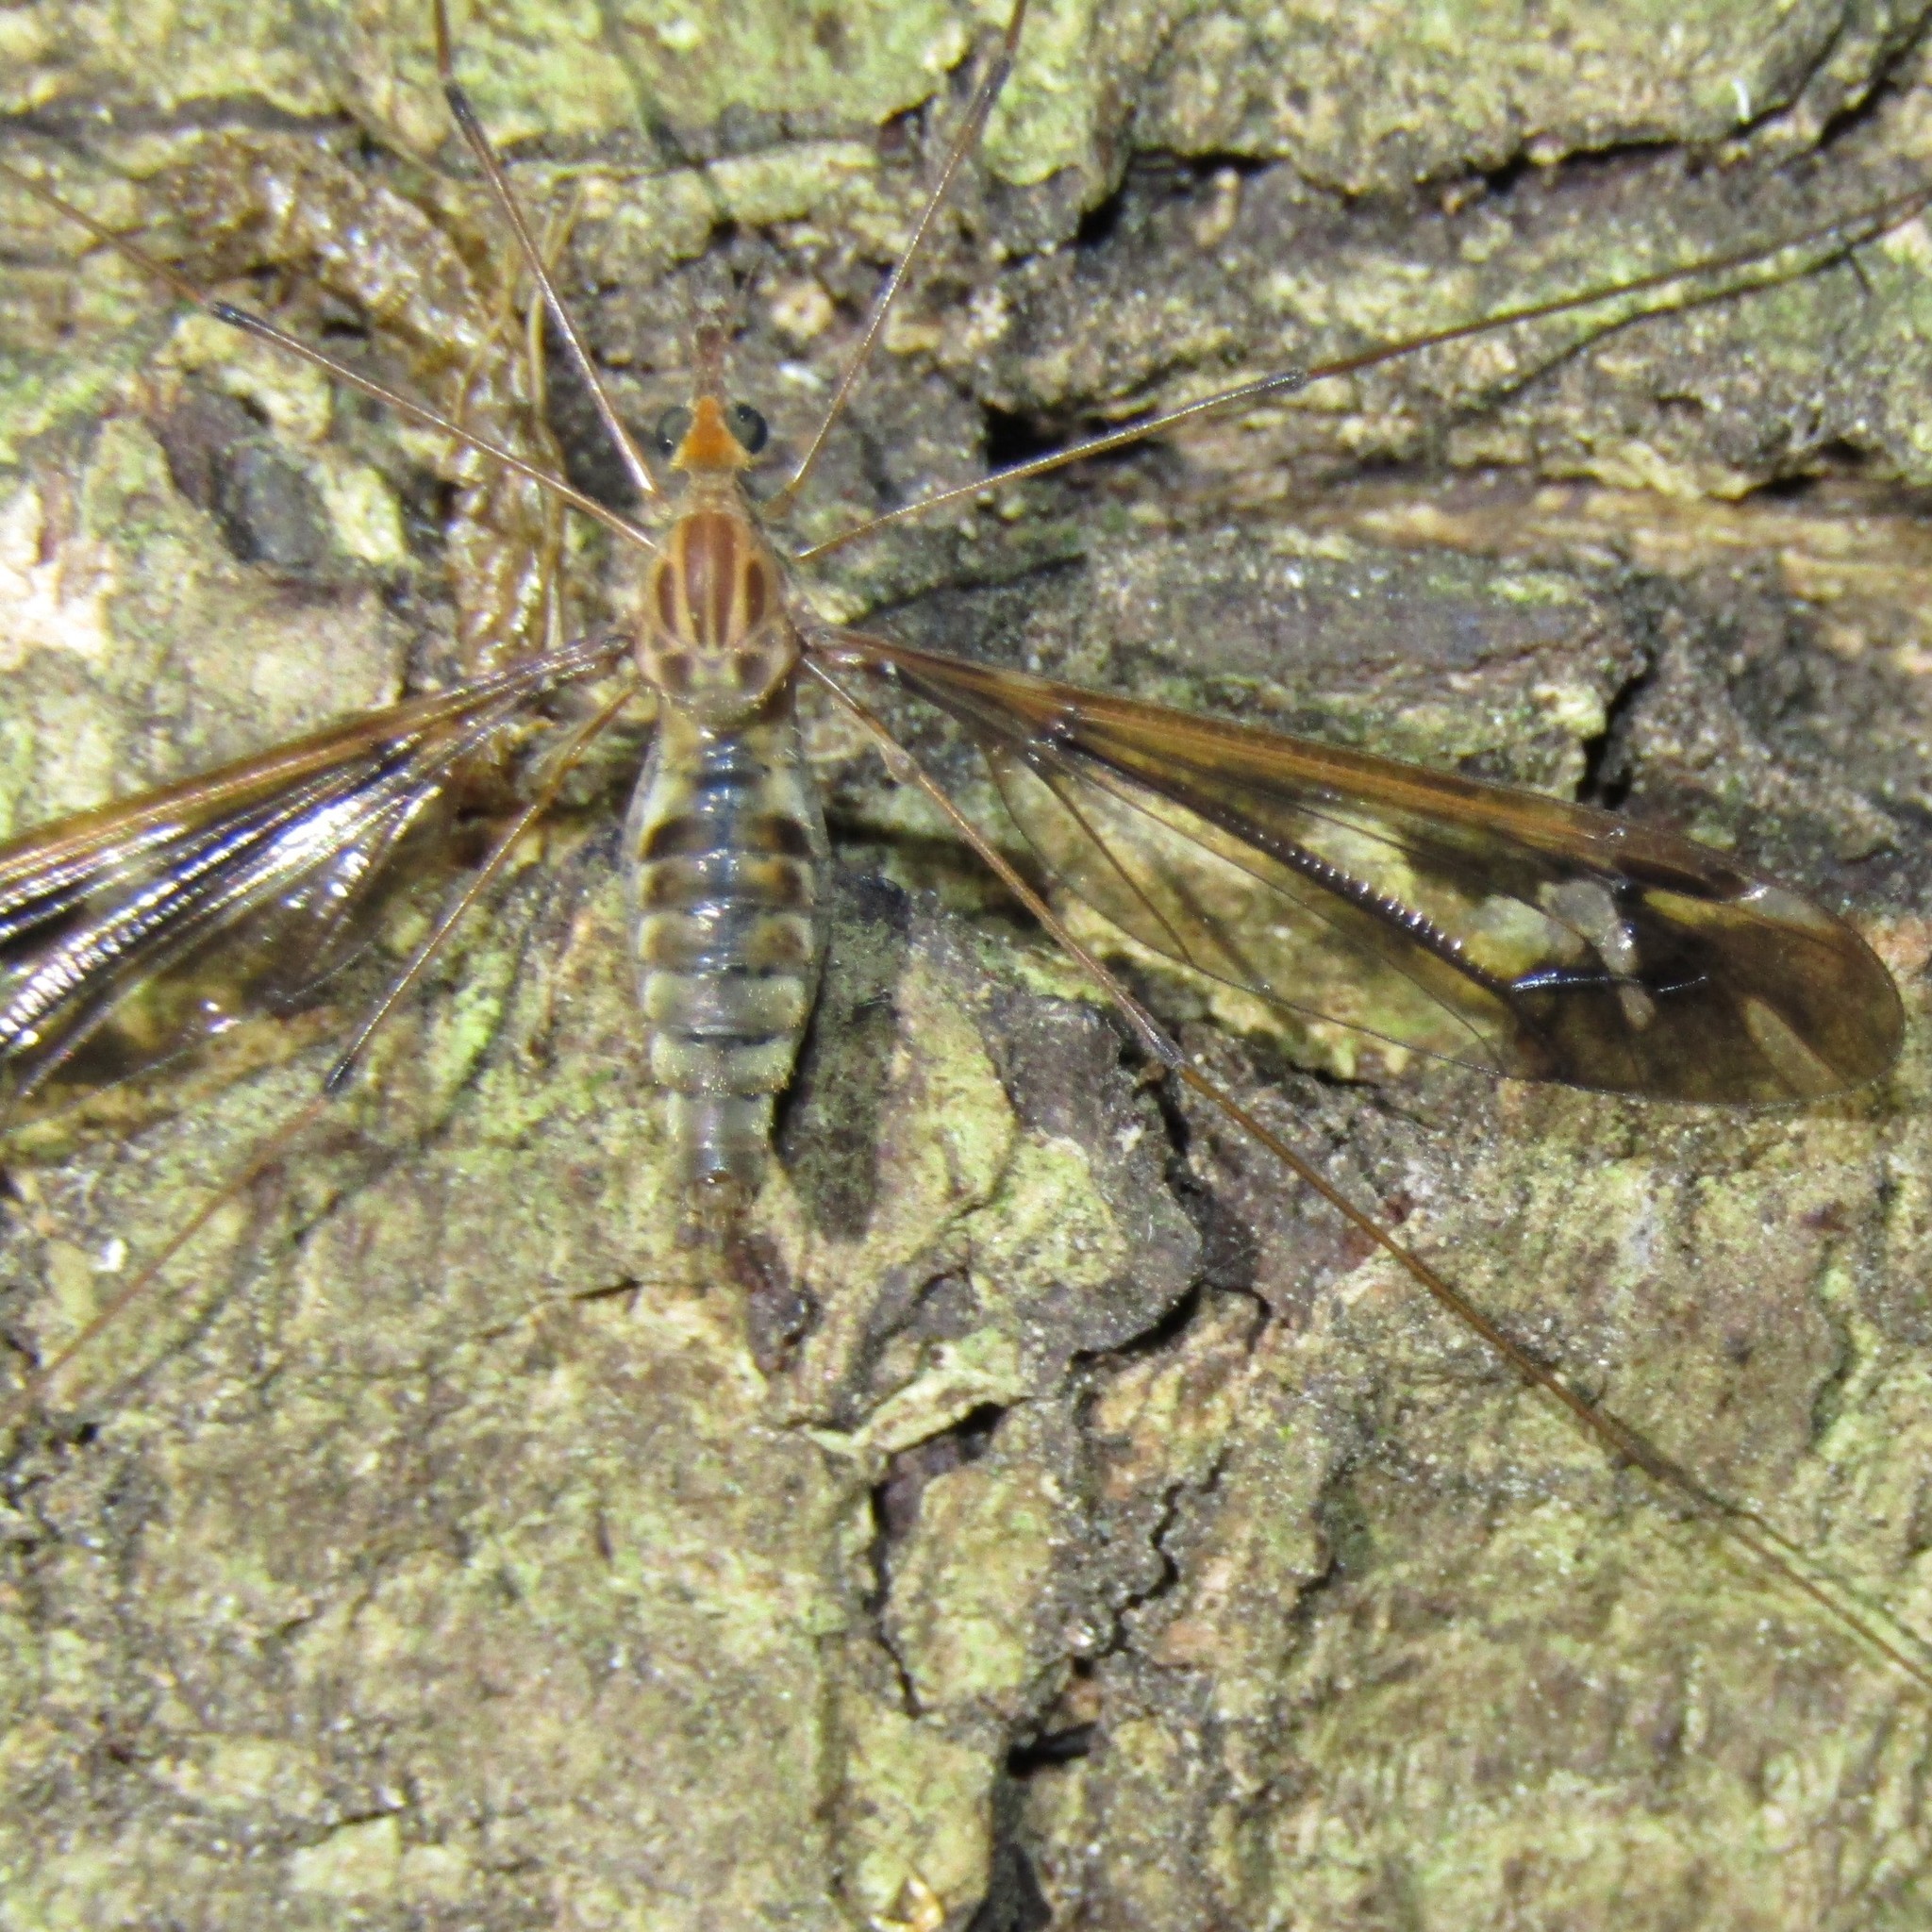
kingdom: Animalia
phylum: Arthropoda
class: Insecta
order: Diptera
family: Tipulidae
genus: Leptotarsus
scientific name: Leptotarsus huttoni
